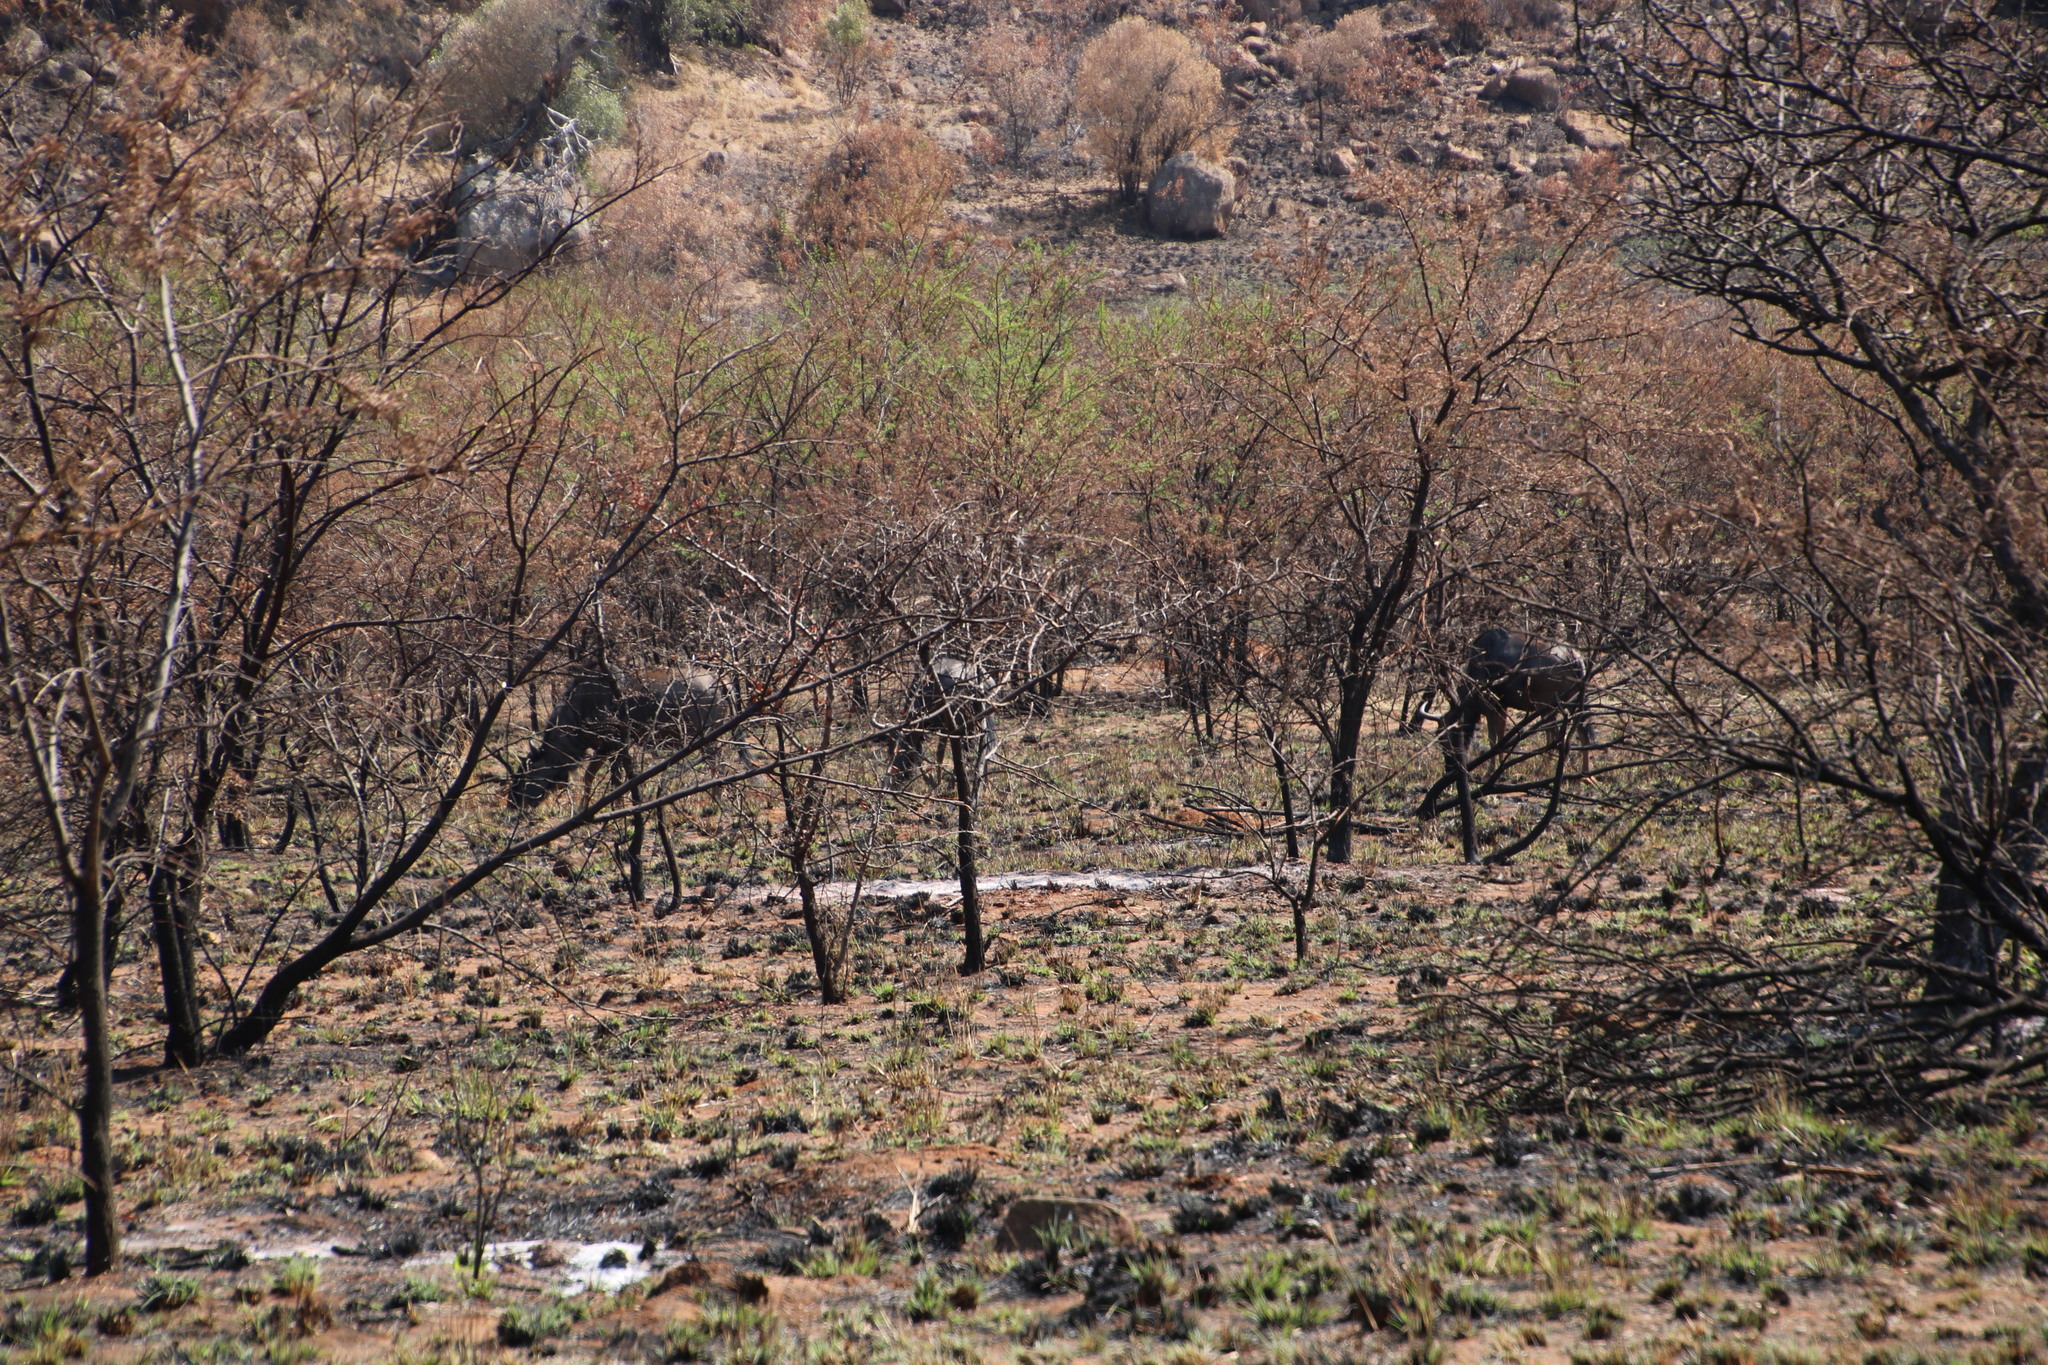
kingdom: Animalia
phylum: Chordata
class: Mammalia
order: Artiodactyla
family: Bovidae
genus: Connochaetes
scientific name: Connochaetes taurinus
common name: Blue wildebeest
